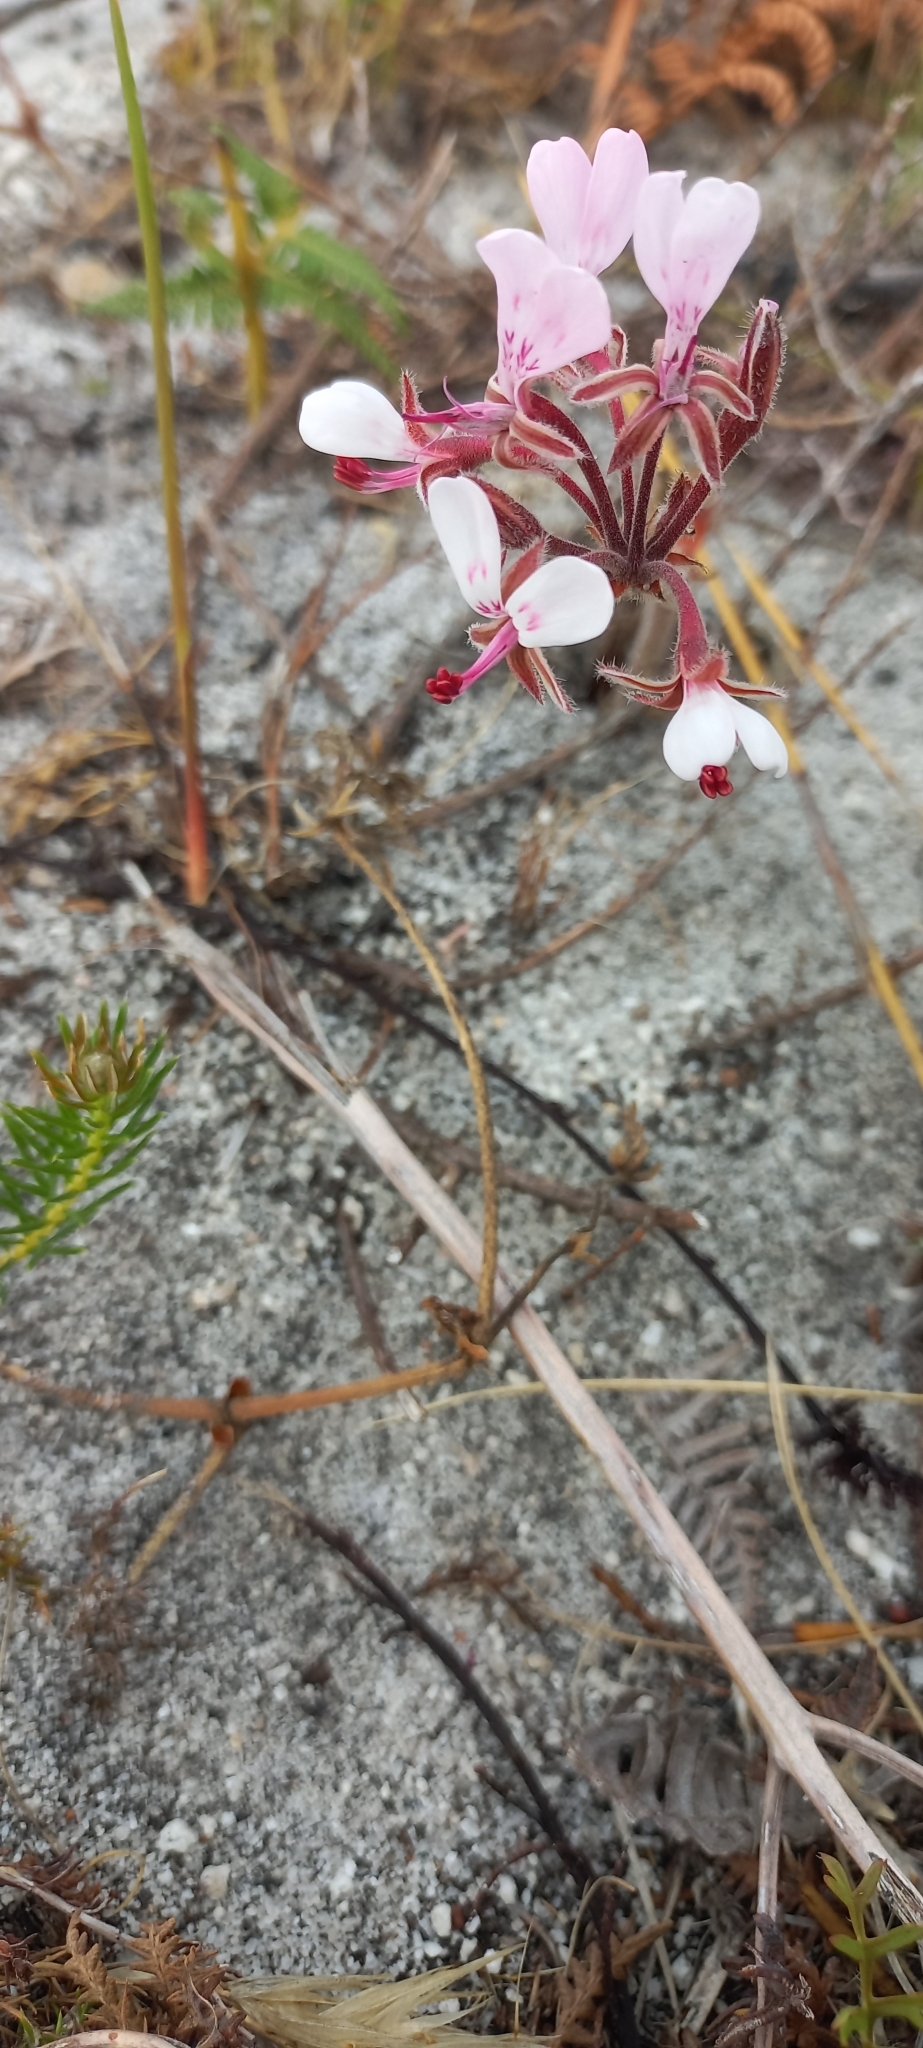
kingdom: Plantae
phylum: Tracheophyta
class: Magnoliopsida
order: Geraniales
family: Geraniaceae
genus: Pelargonium
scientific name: Pelargonium dipetalum
